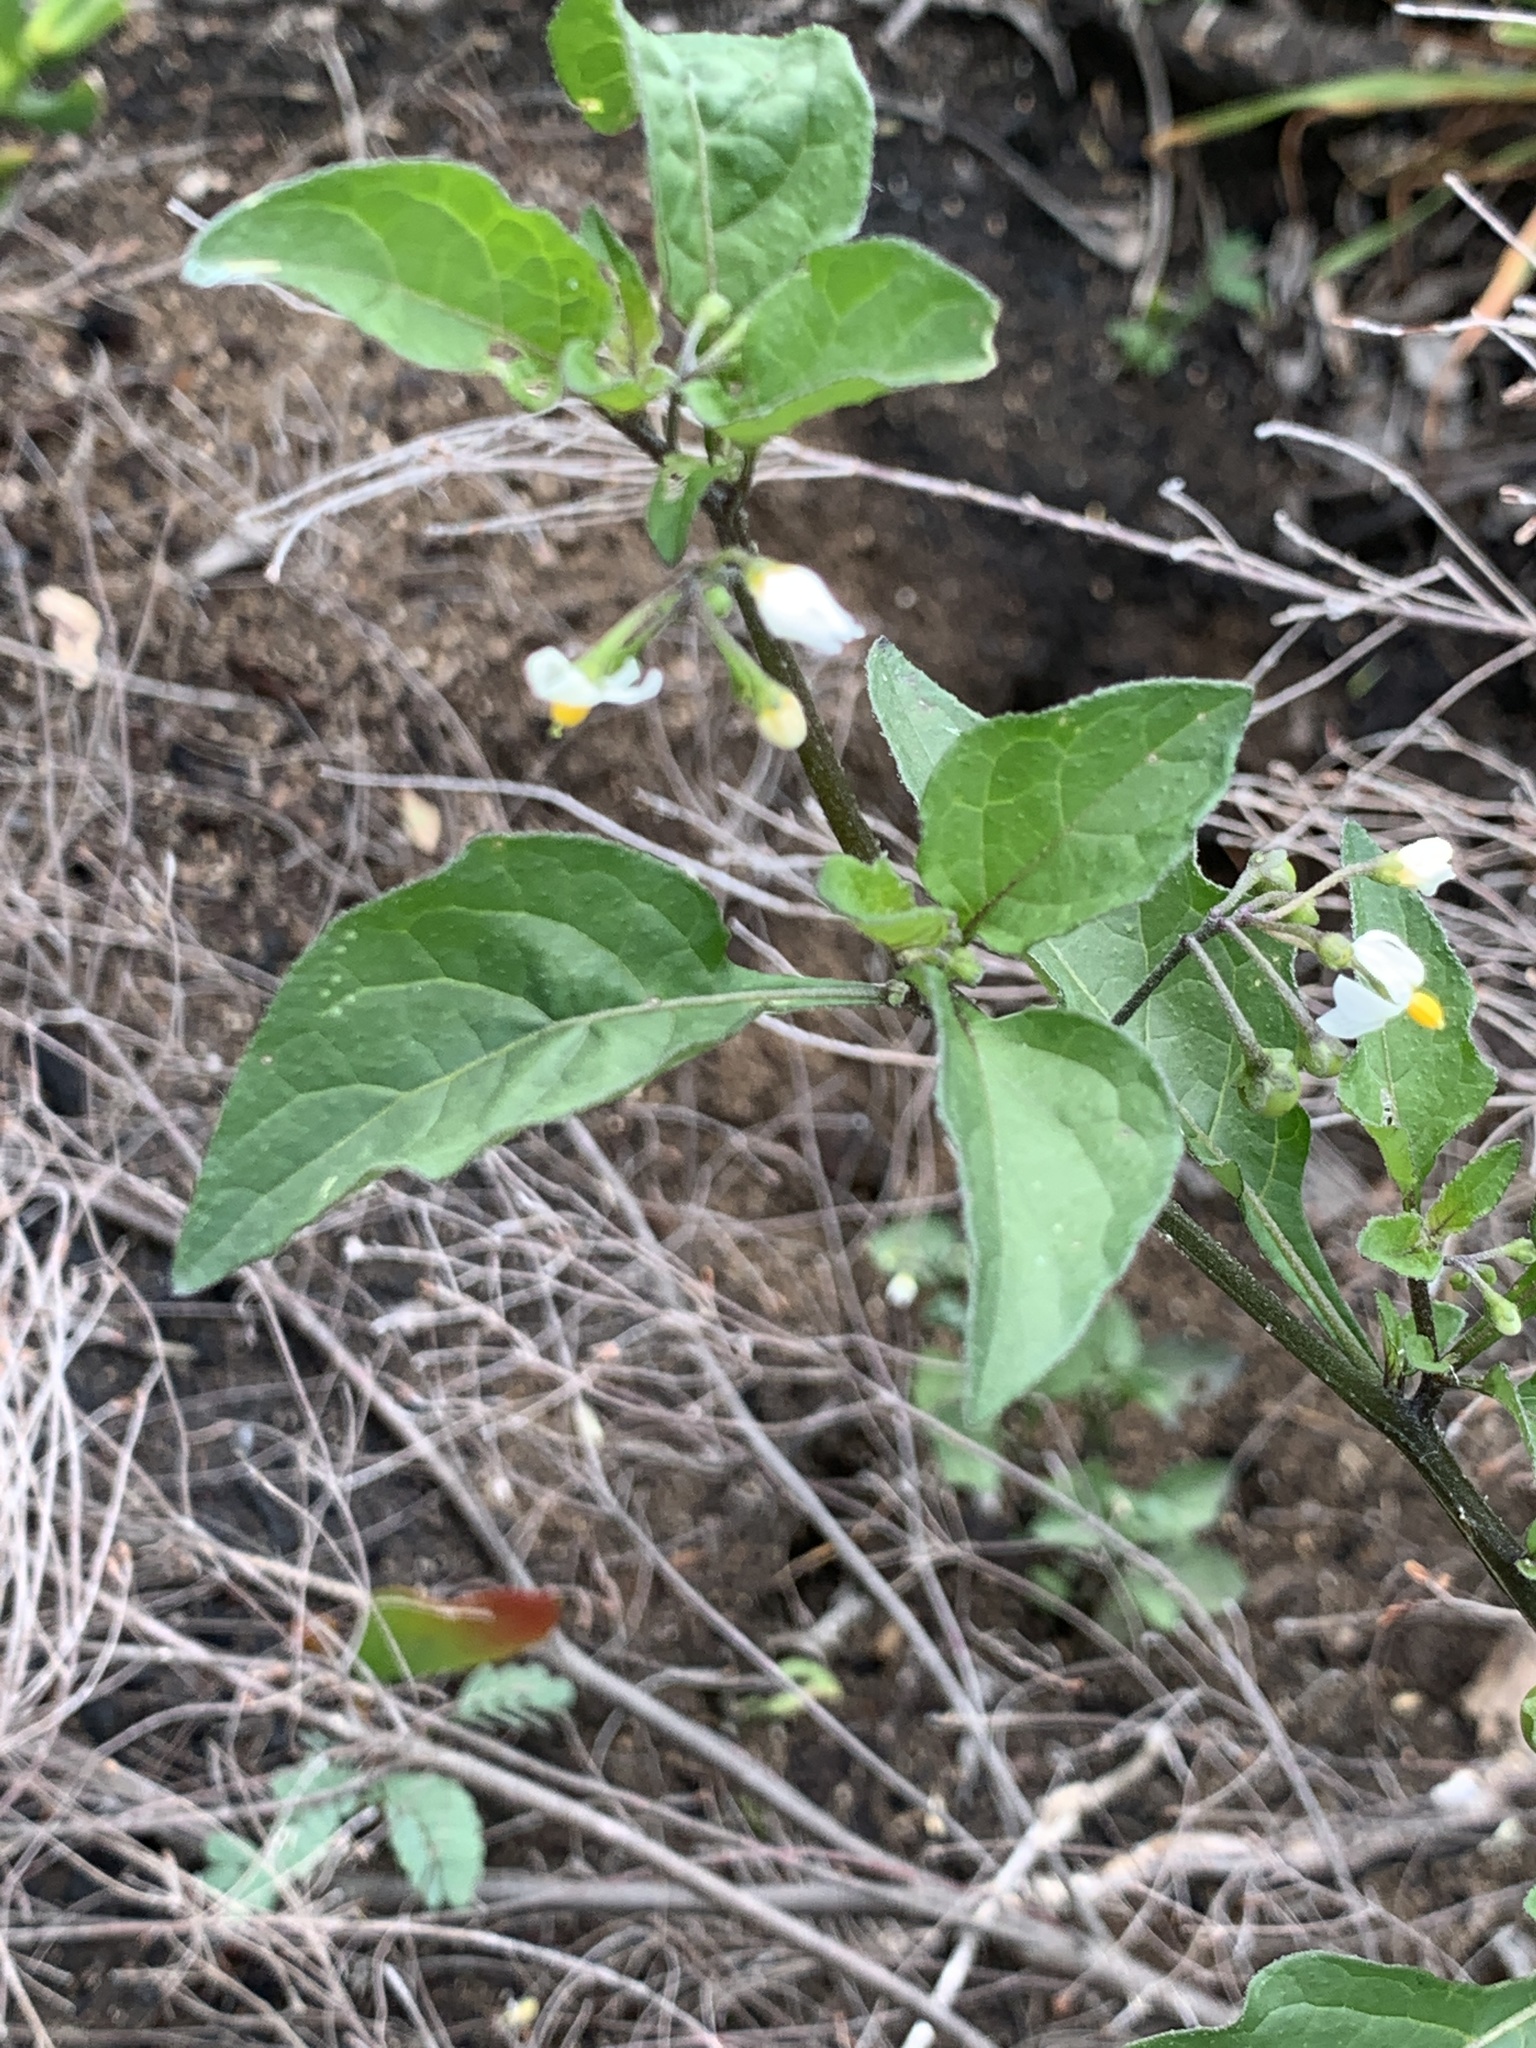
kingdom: Plantae
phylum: Tracheophyta
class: Magnoliopsida
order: Solanales
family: Solanaceae
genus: Solanum
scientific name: Solanum nigrum
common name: Black nightshade
